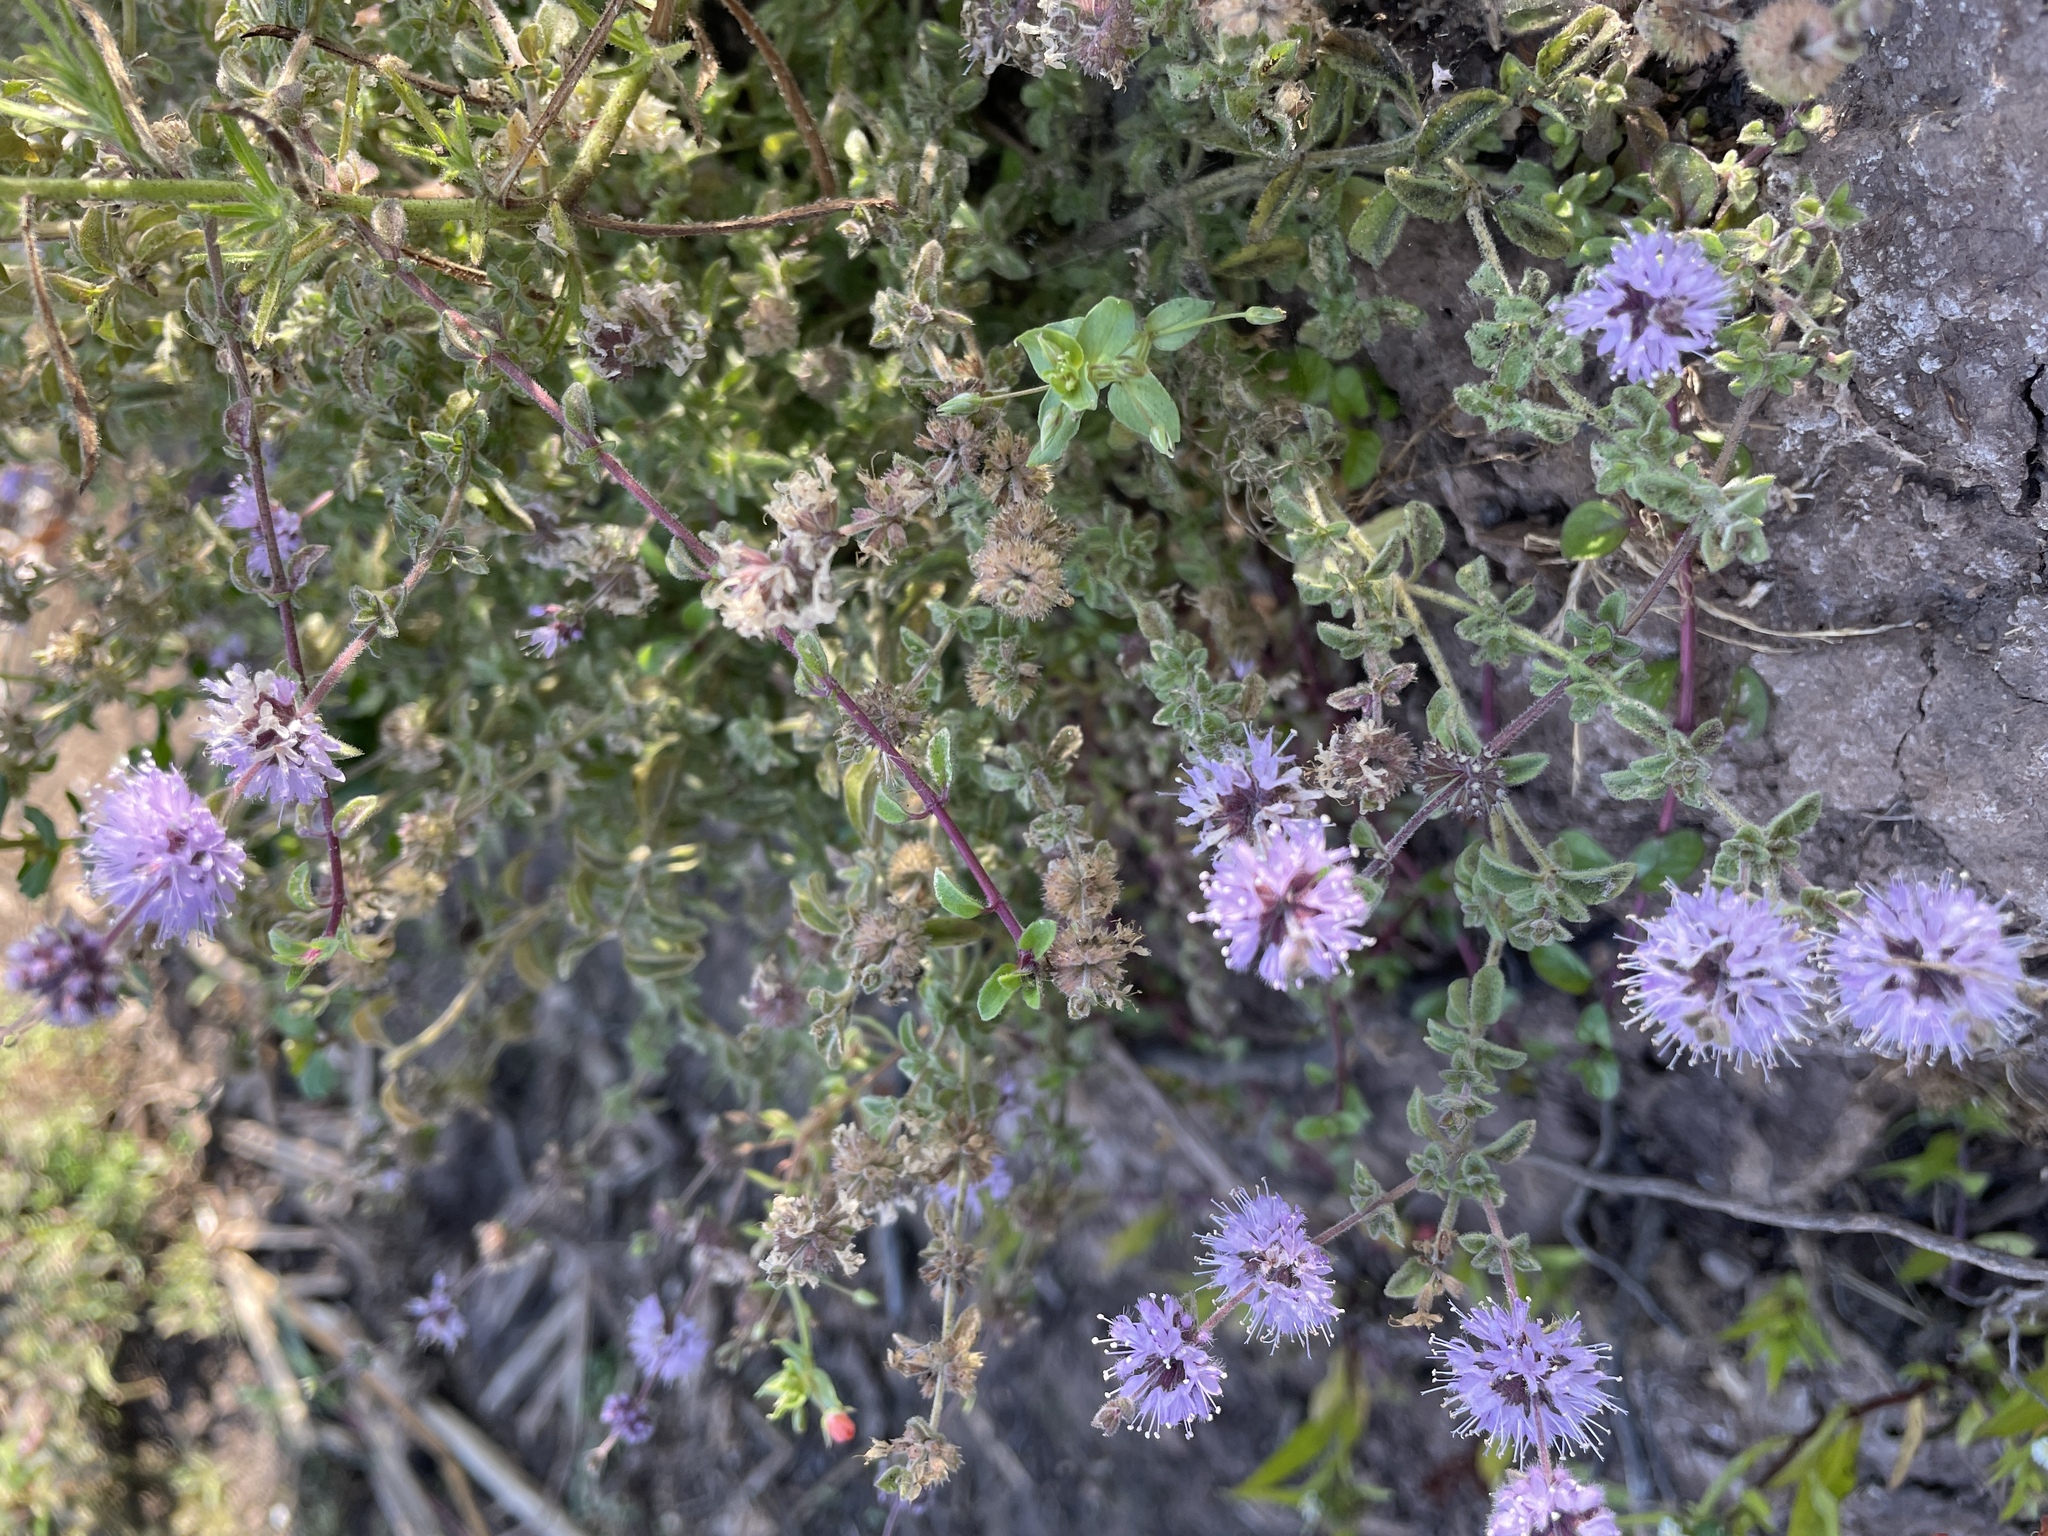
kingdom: Plantae
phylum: Tracheophyta
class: Magnoliopsida
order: Lamiales
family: Lamiaceae
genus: Mentha
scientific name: Mentha pulegium
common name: Pennyroyal
